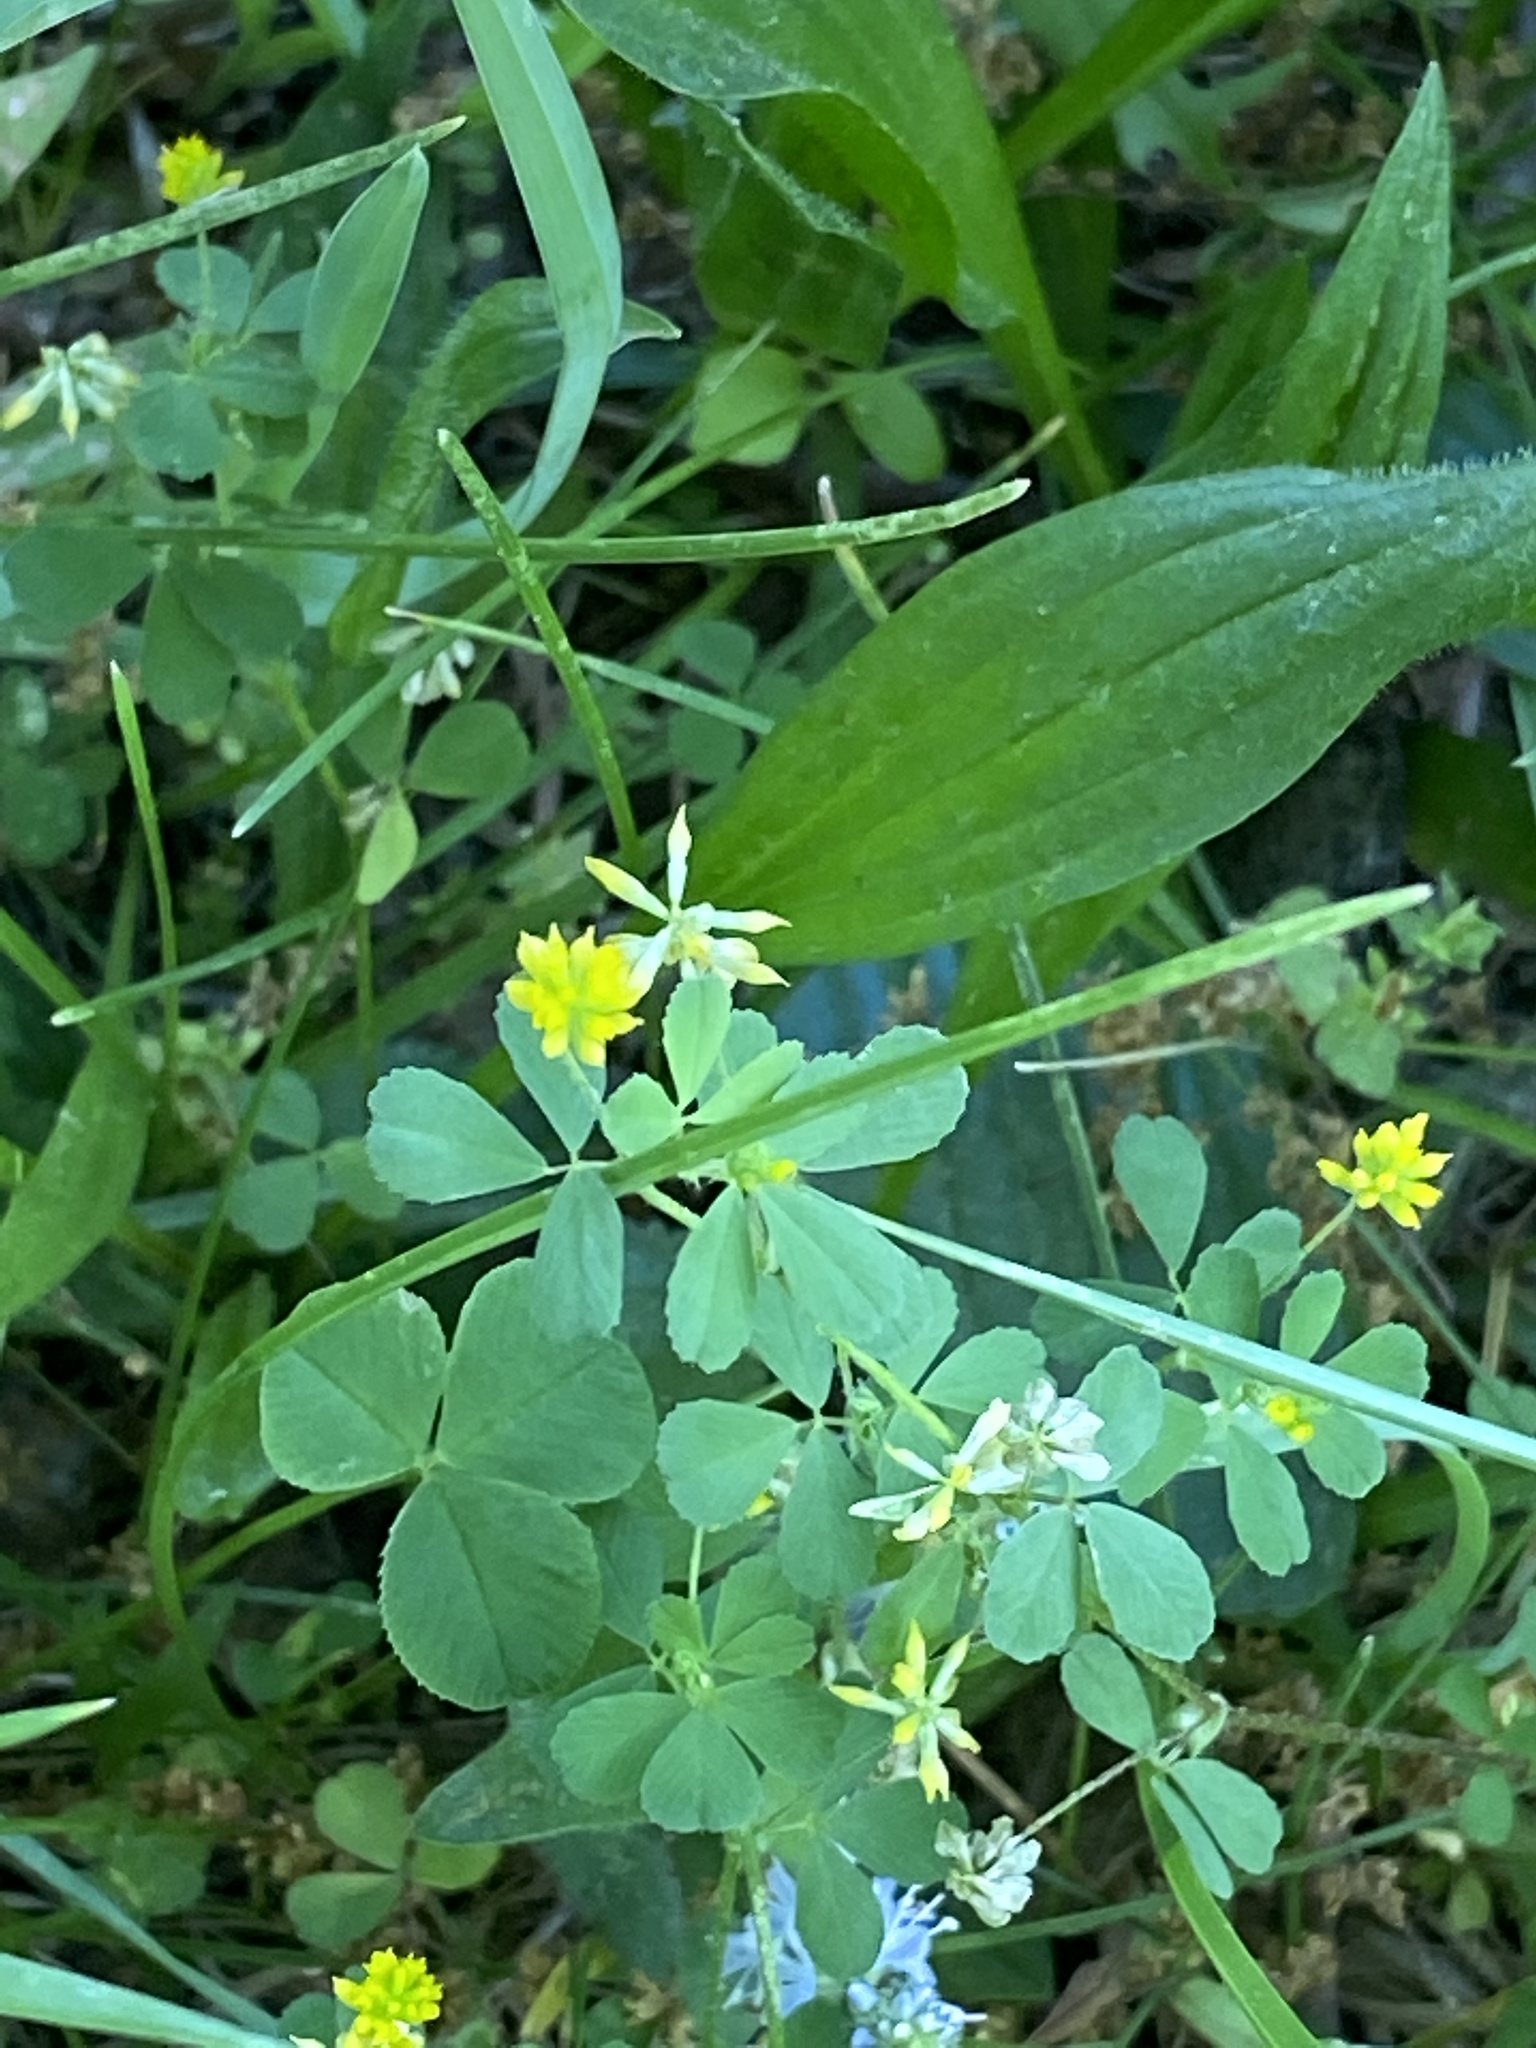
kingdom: Plantae
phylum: Tracheophyta
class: Magnoliopsida
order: Fabales
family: Fabaceae
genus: Trifolium
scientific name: Trifolium dubium
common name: Suckling clover
